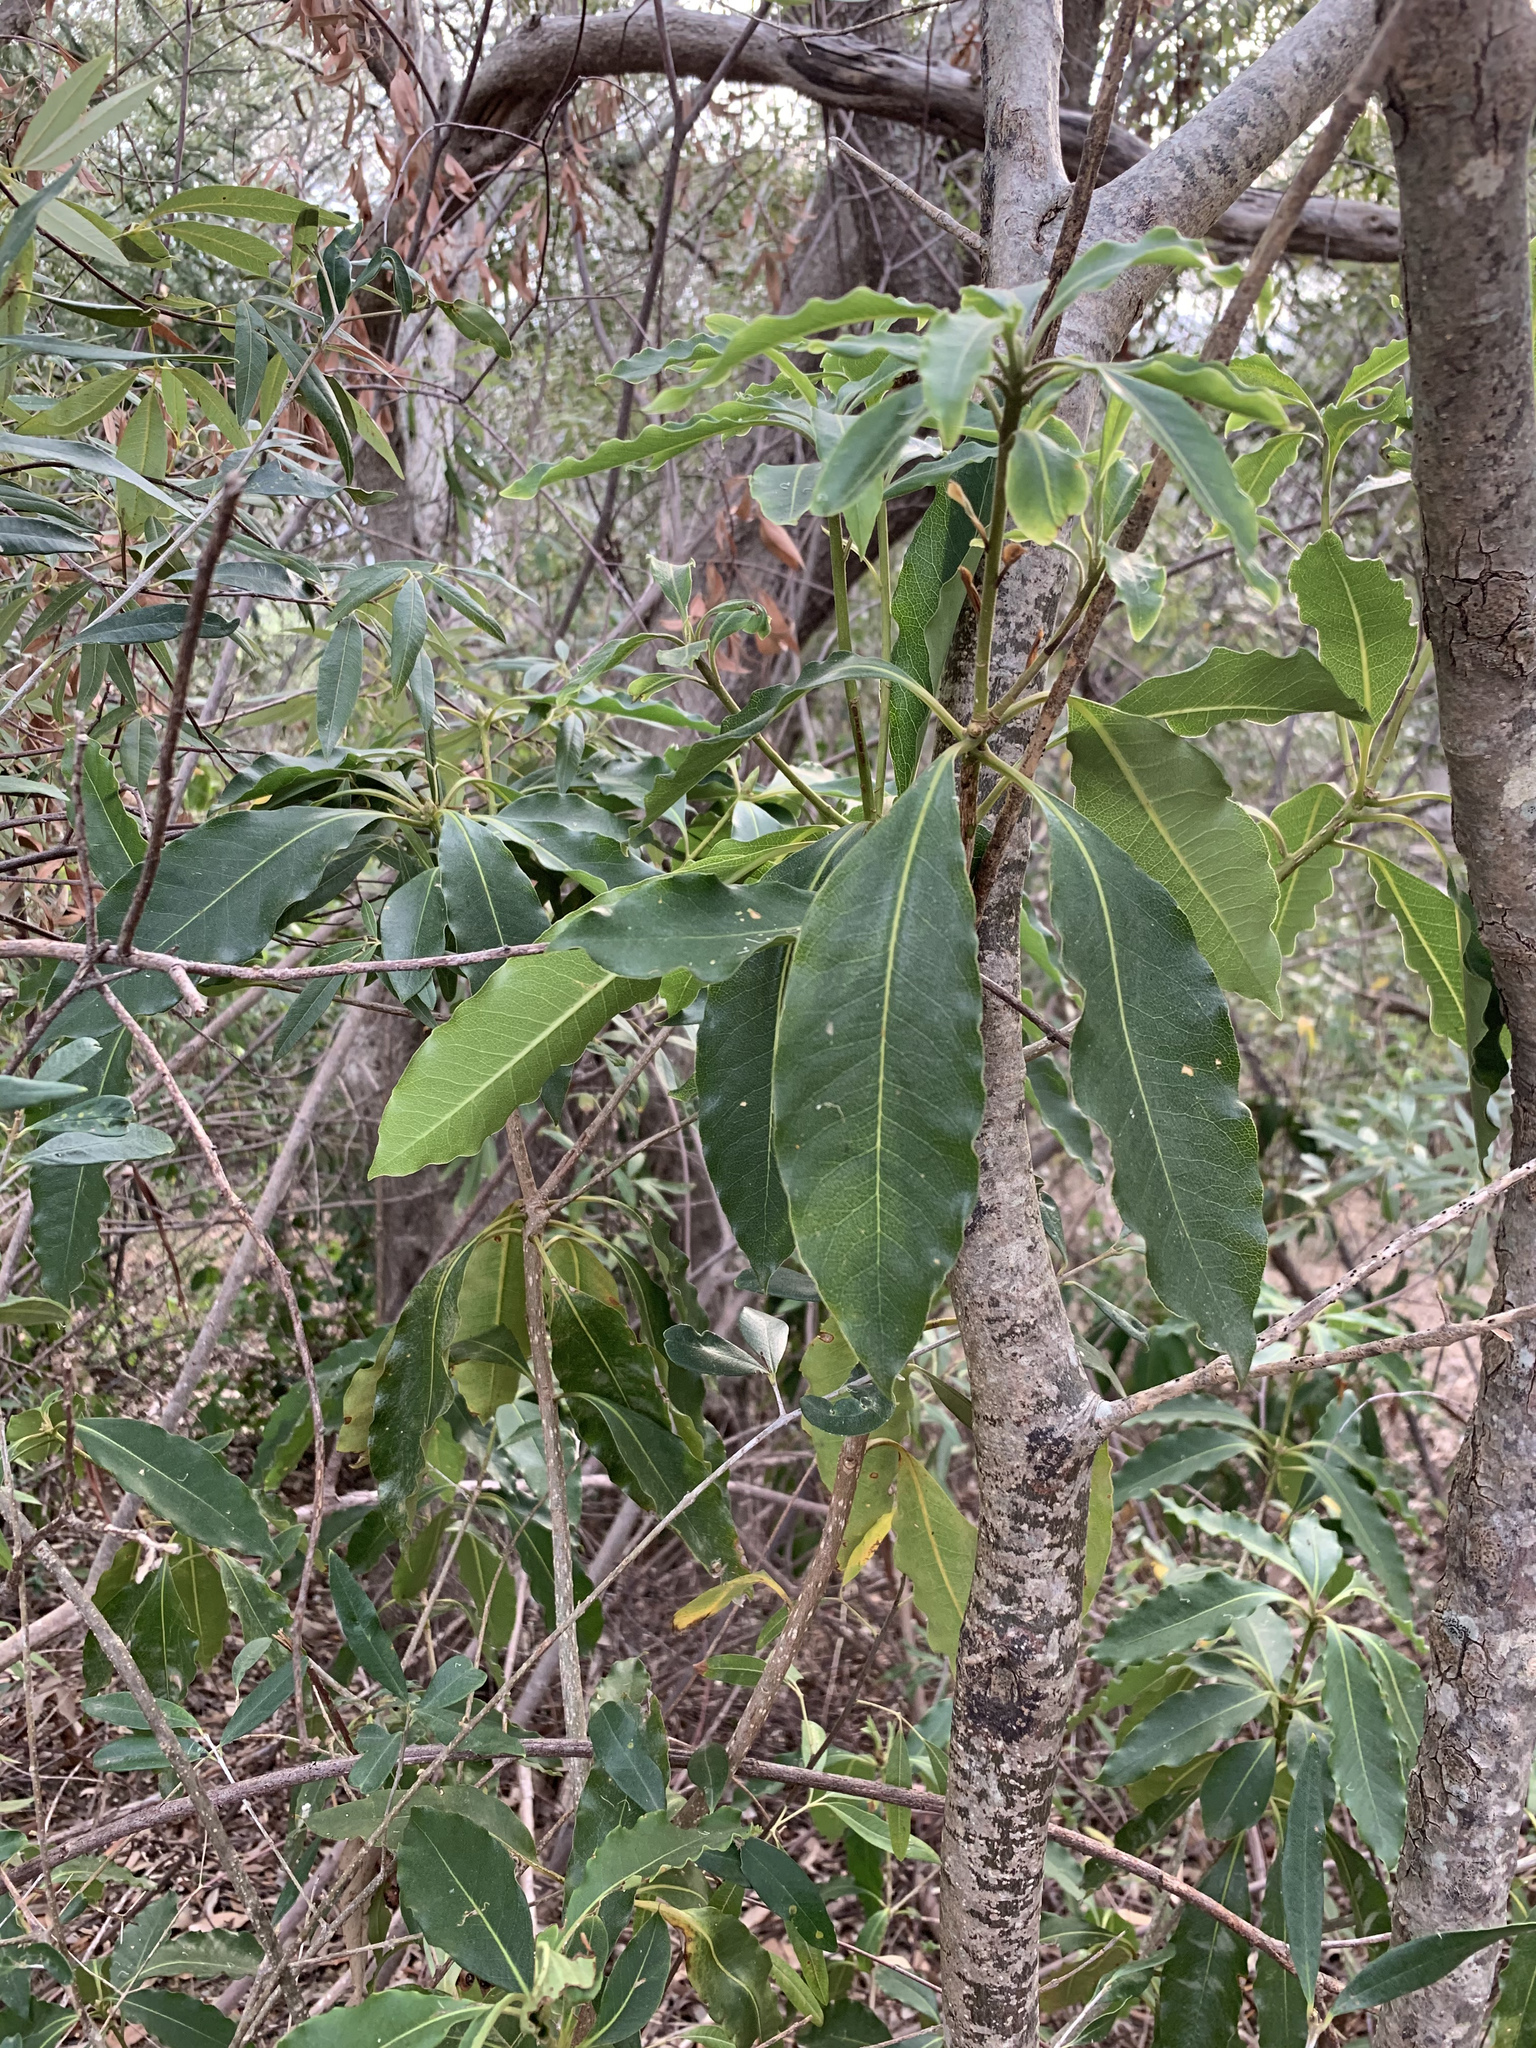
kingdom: Plantae
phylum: Tracheophyta
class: Magnoliopsida
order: Apiales
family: Pittosporaceae
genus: Pittosporum
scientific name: Pittosporum undulatum
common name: Australian cheesewood
